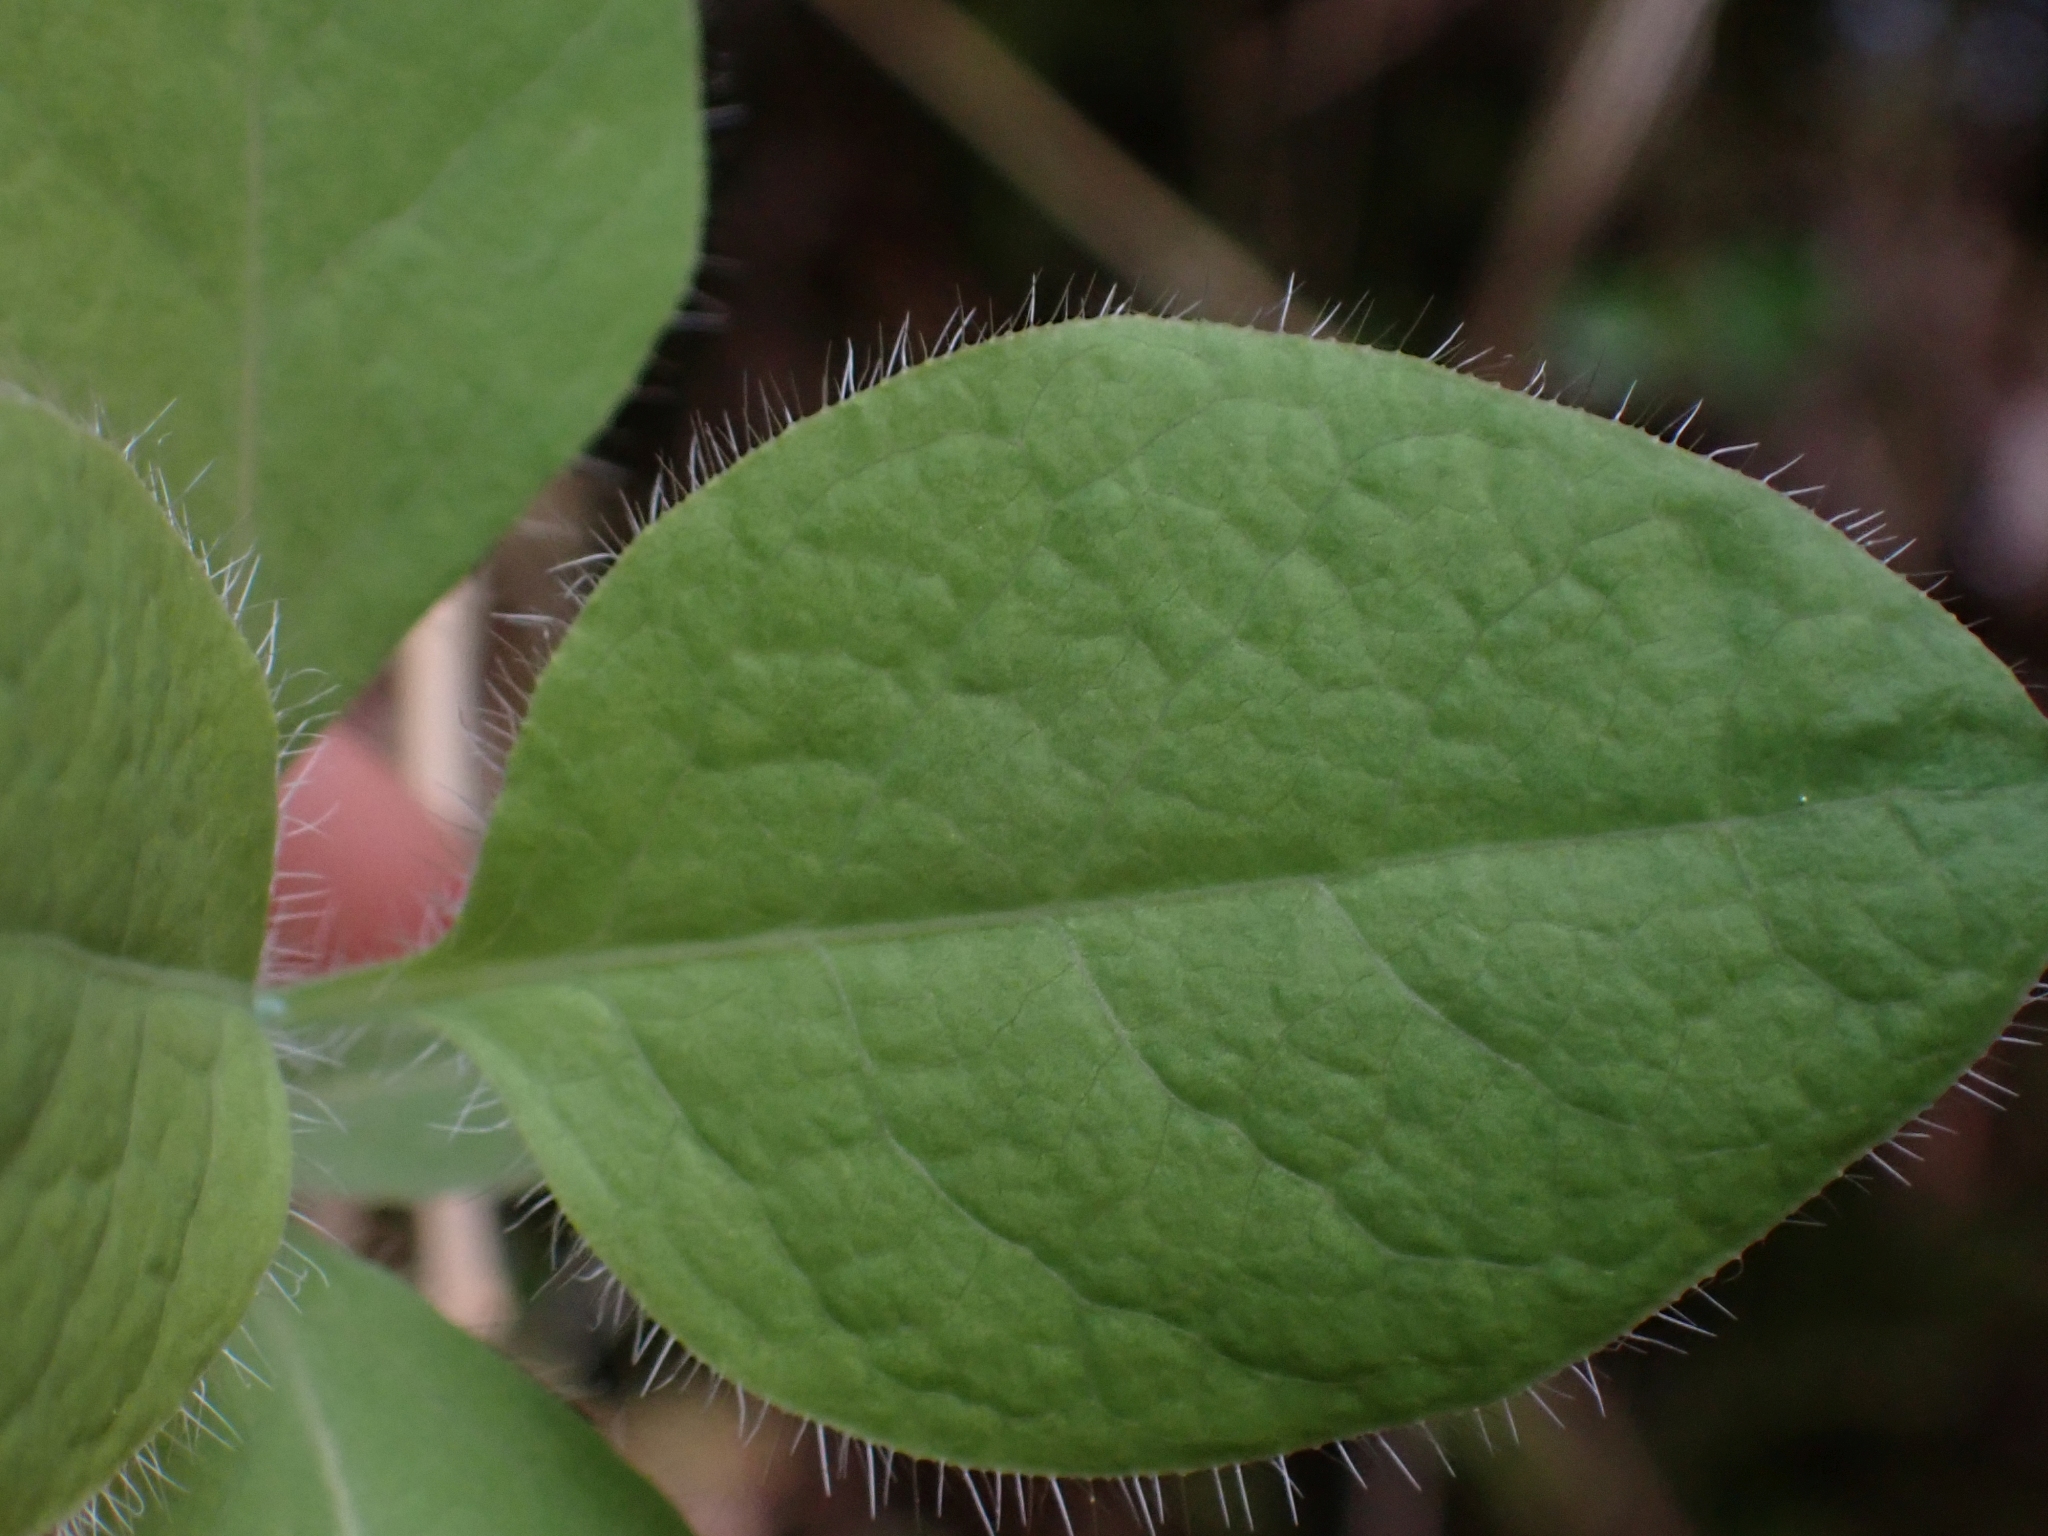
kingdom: Plantae
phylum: Tracheophyta
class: Magnoliopsida
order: Dipsacales
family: Caprifoliaceae
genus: Lonicera
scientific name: Lonicera ciliosa
